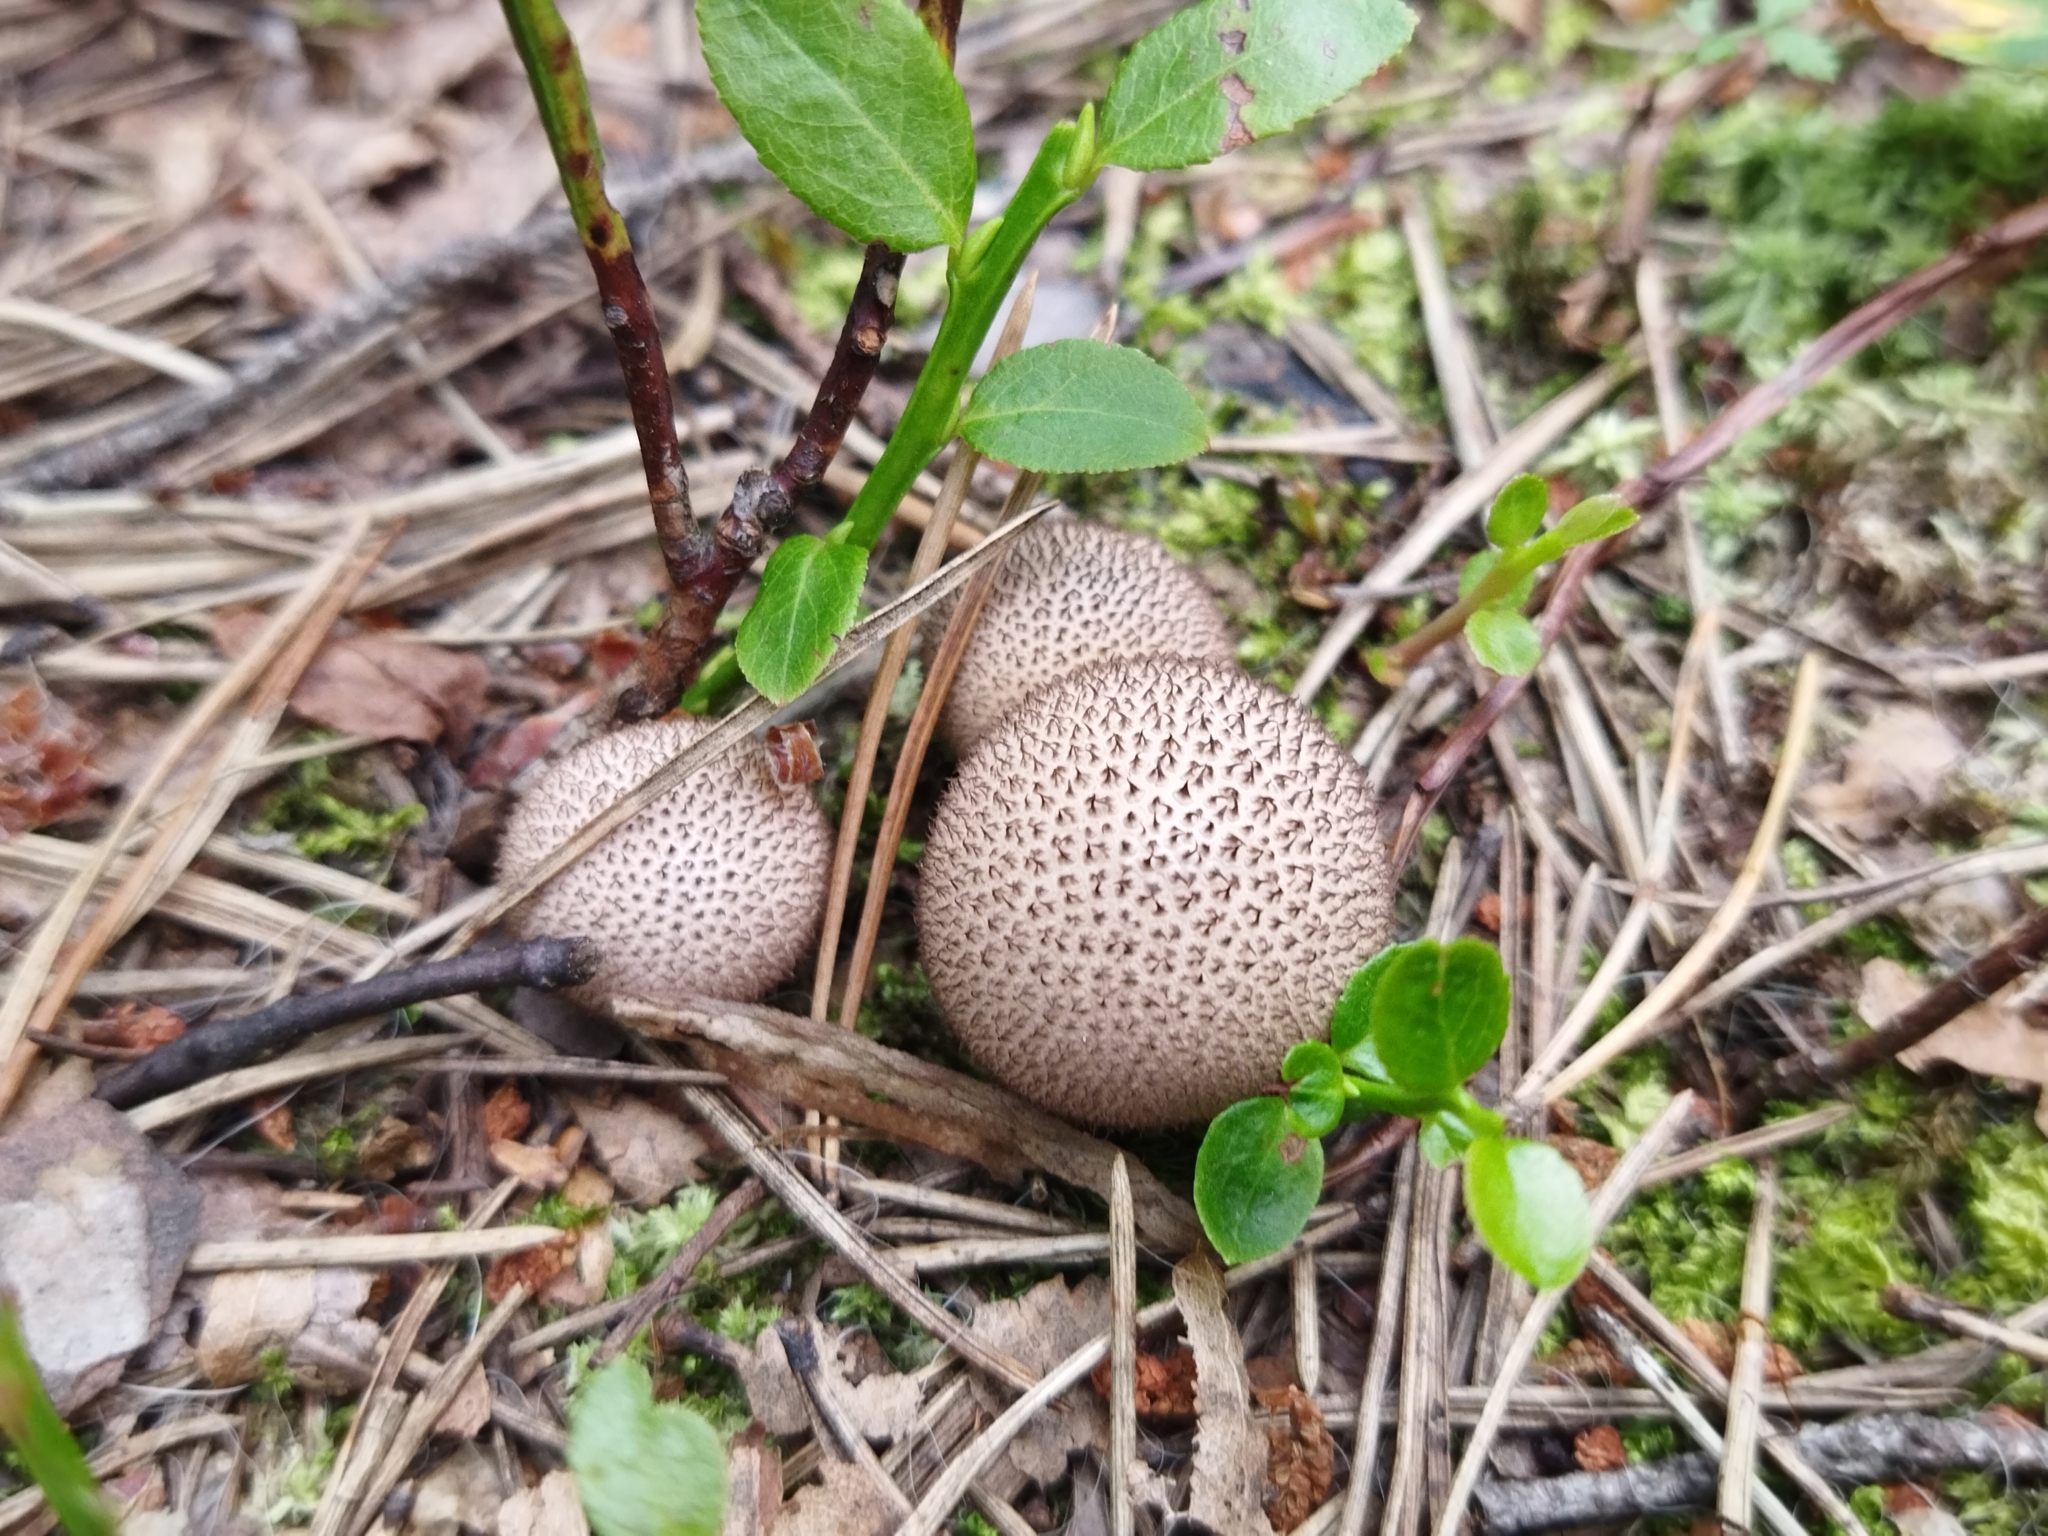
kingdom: Fungi
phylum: Basidiomycota
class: Agaricomycetes
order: Agaricales
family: Lycoperdaceae
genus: Lycoperdon
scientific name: Lycoperdon nigrescens
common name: Blackish puffball
